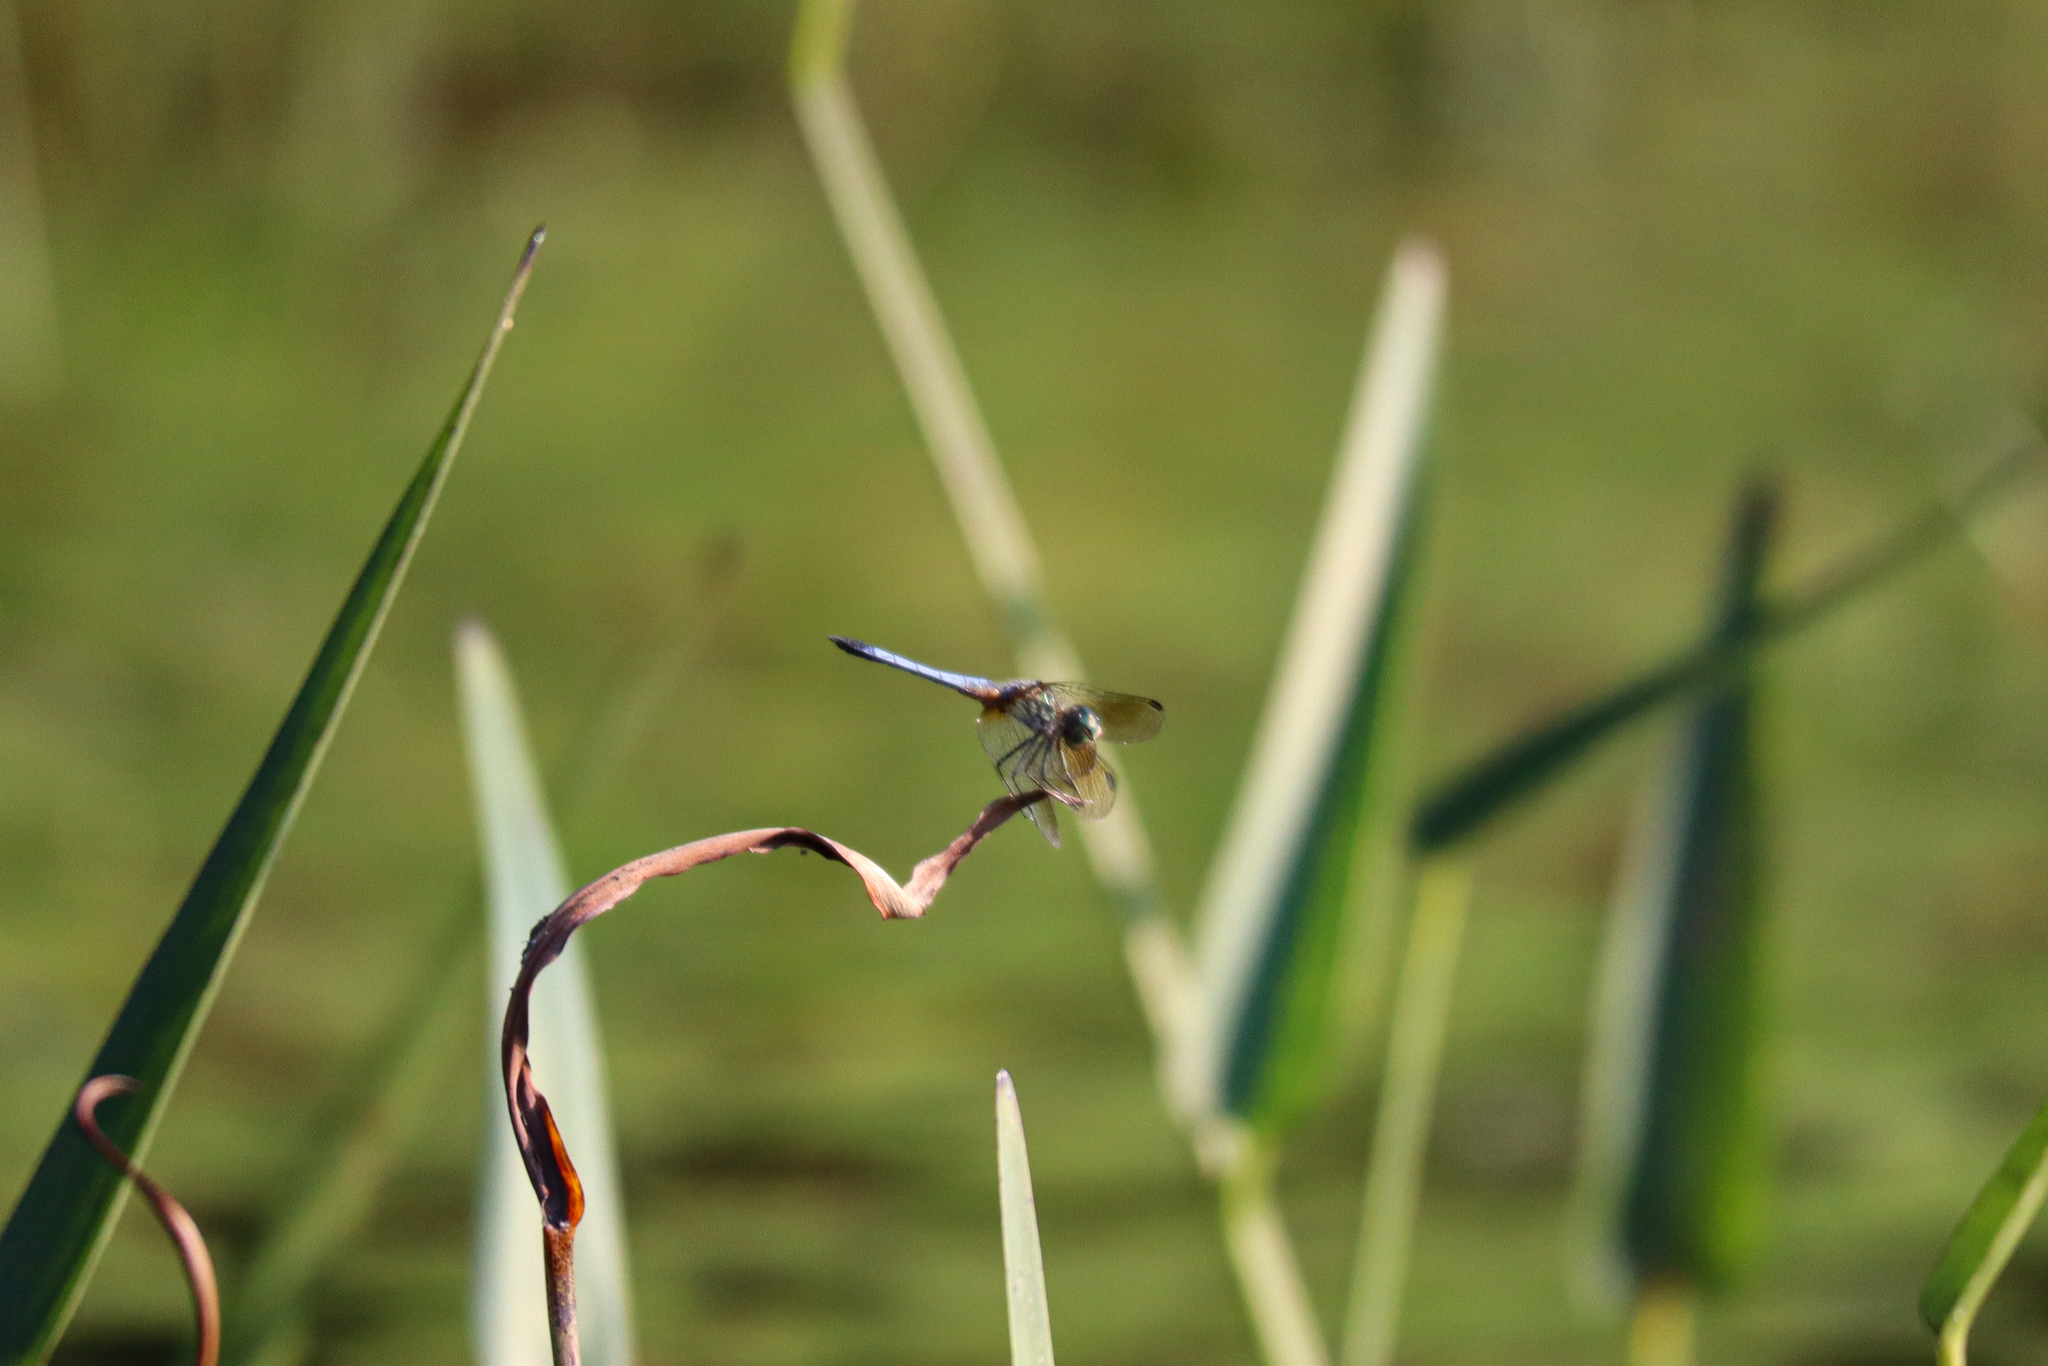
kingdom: Animalia
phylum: Arthropoda
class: Insecta
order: Odonata
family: Libellulidae
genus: Pachydiplax
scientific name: Pachydiplax longipennis
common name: Blue dasher
